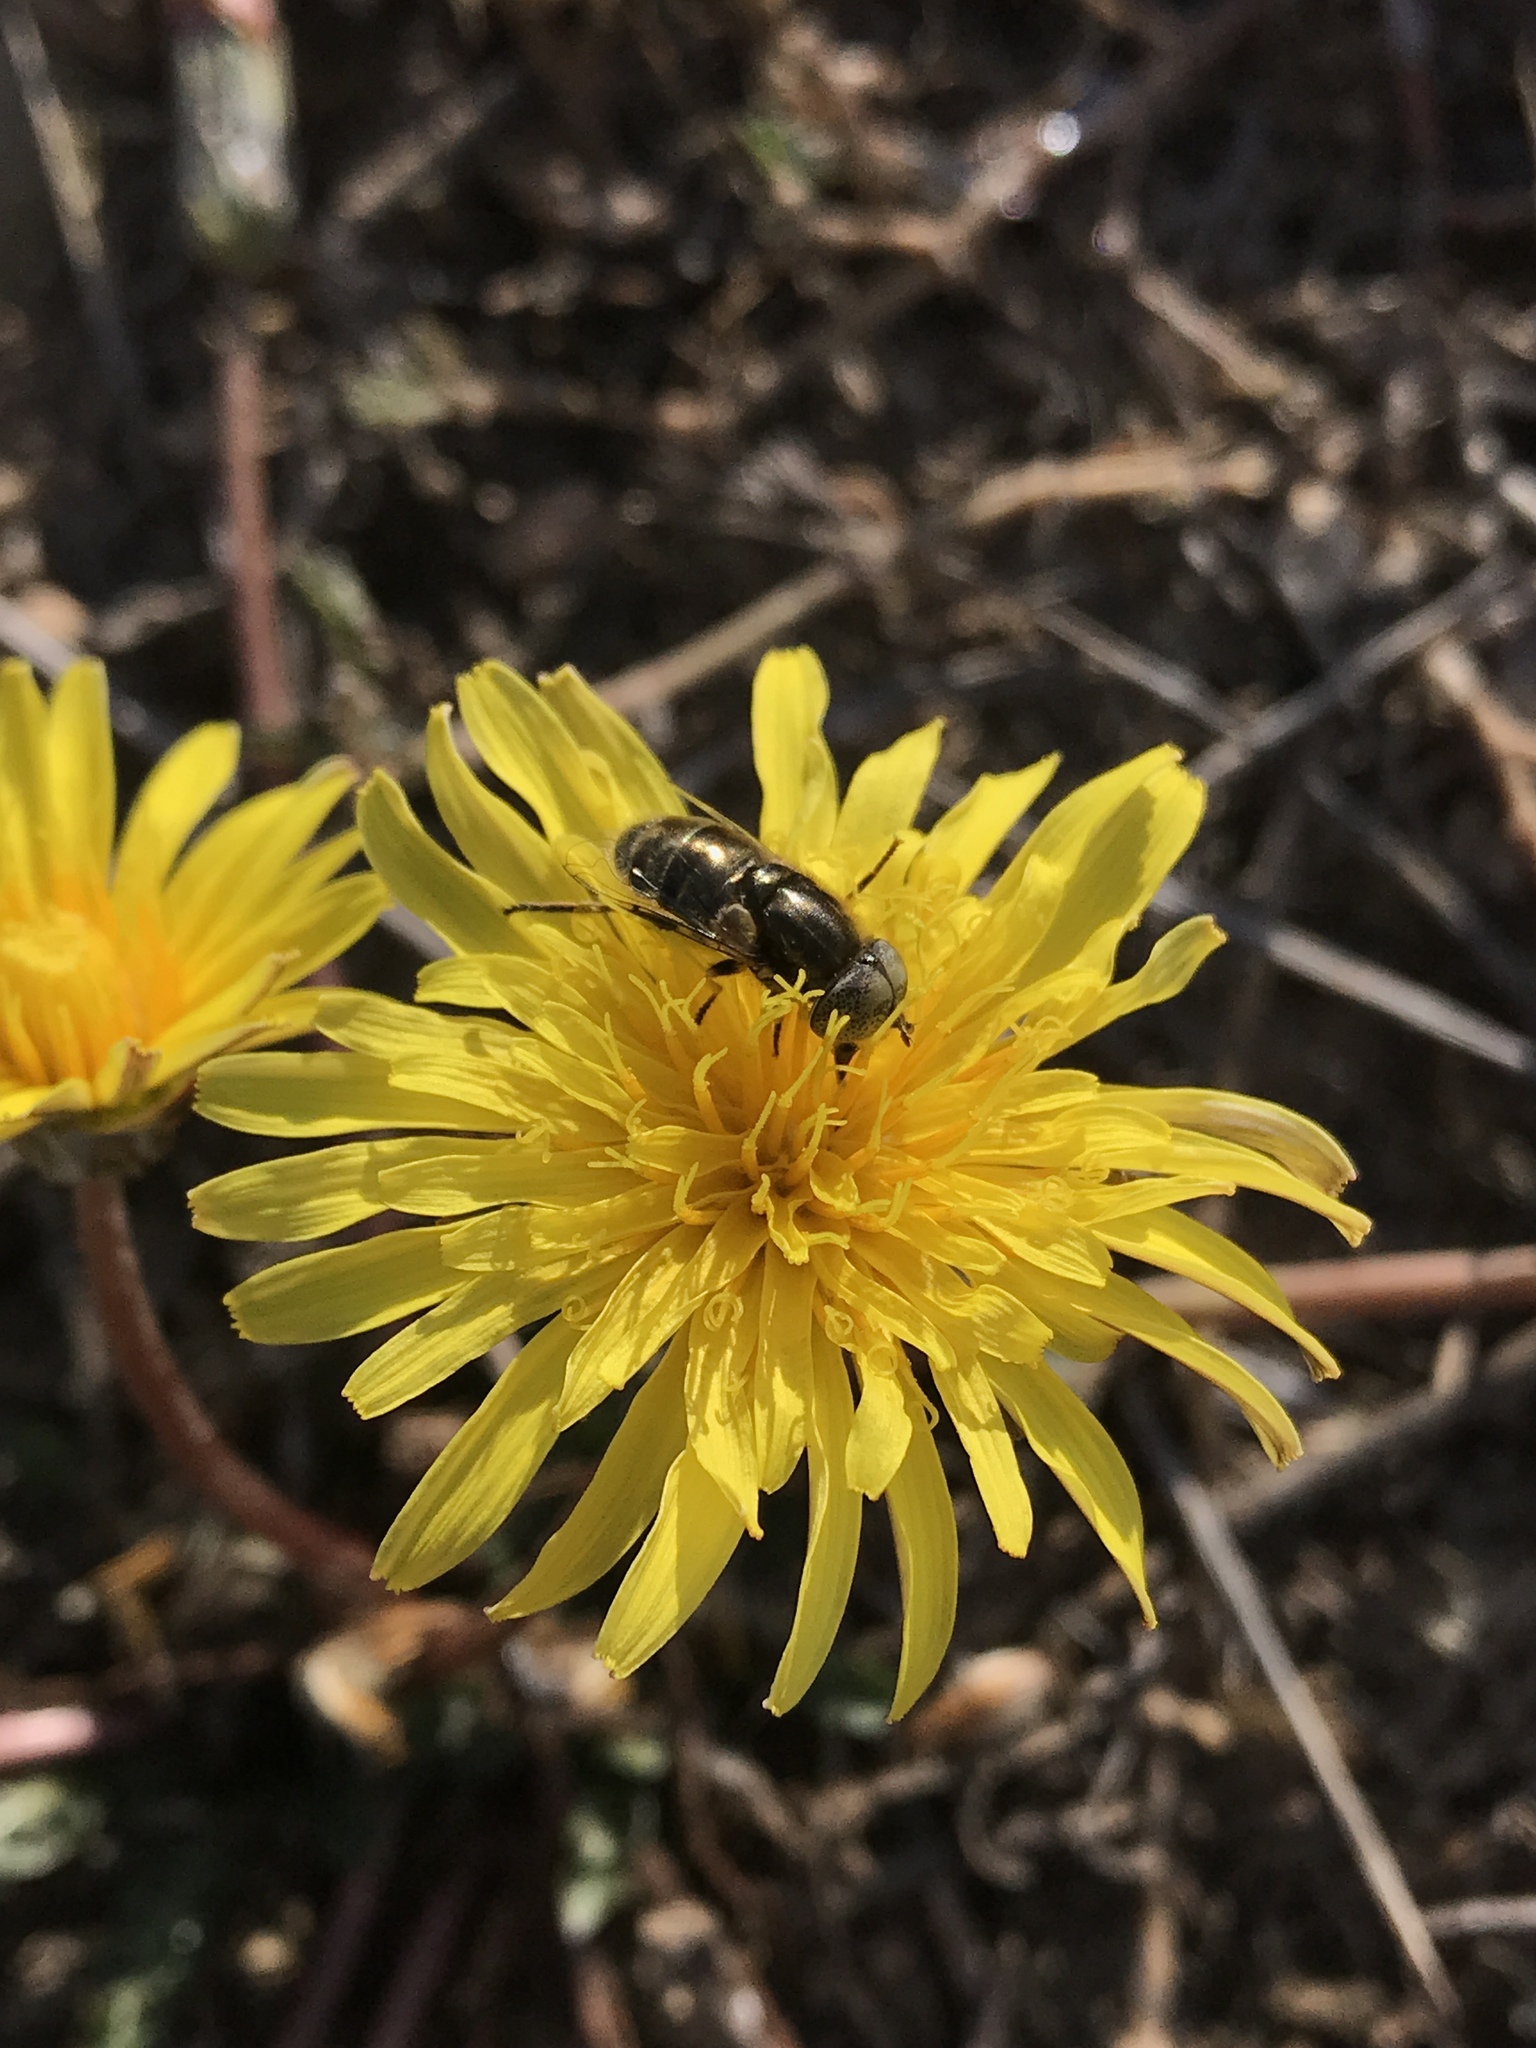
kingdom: Animalia
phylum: Arthropoda
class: Insecta
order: Diptera
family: Syrphidae
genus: Eristalinus
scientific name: Eristalinus aeneus
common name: Syrphid fly
